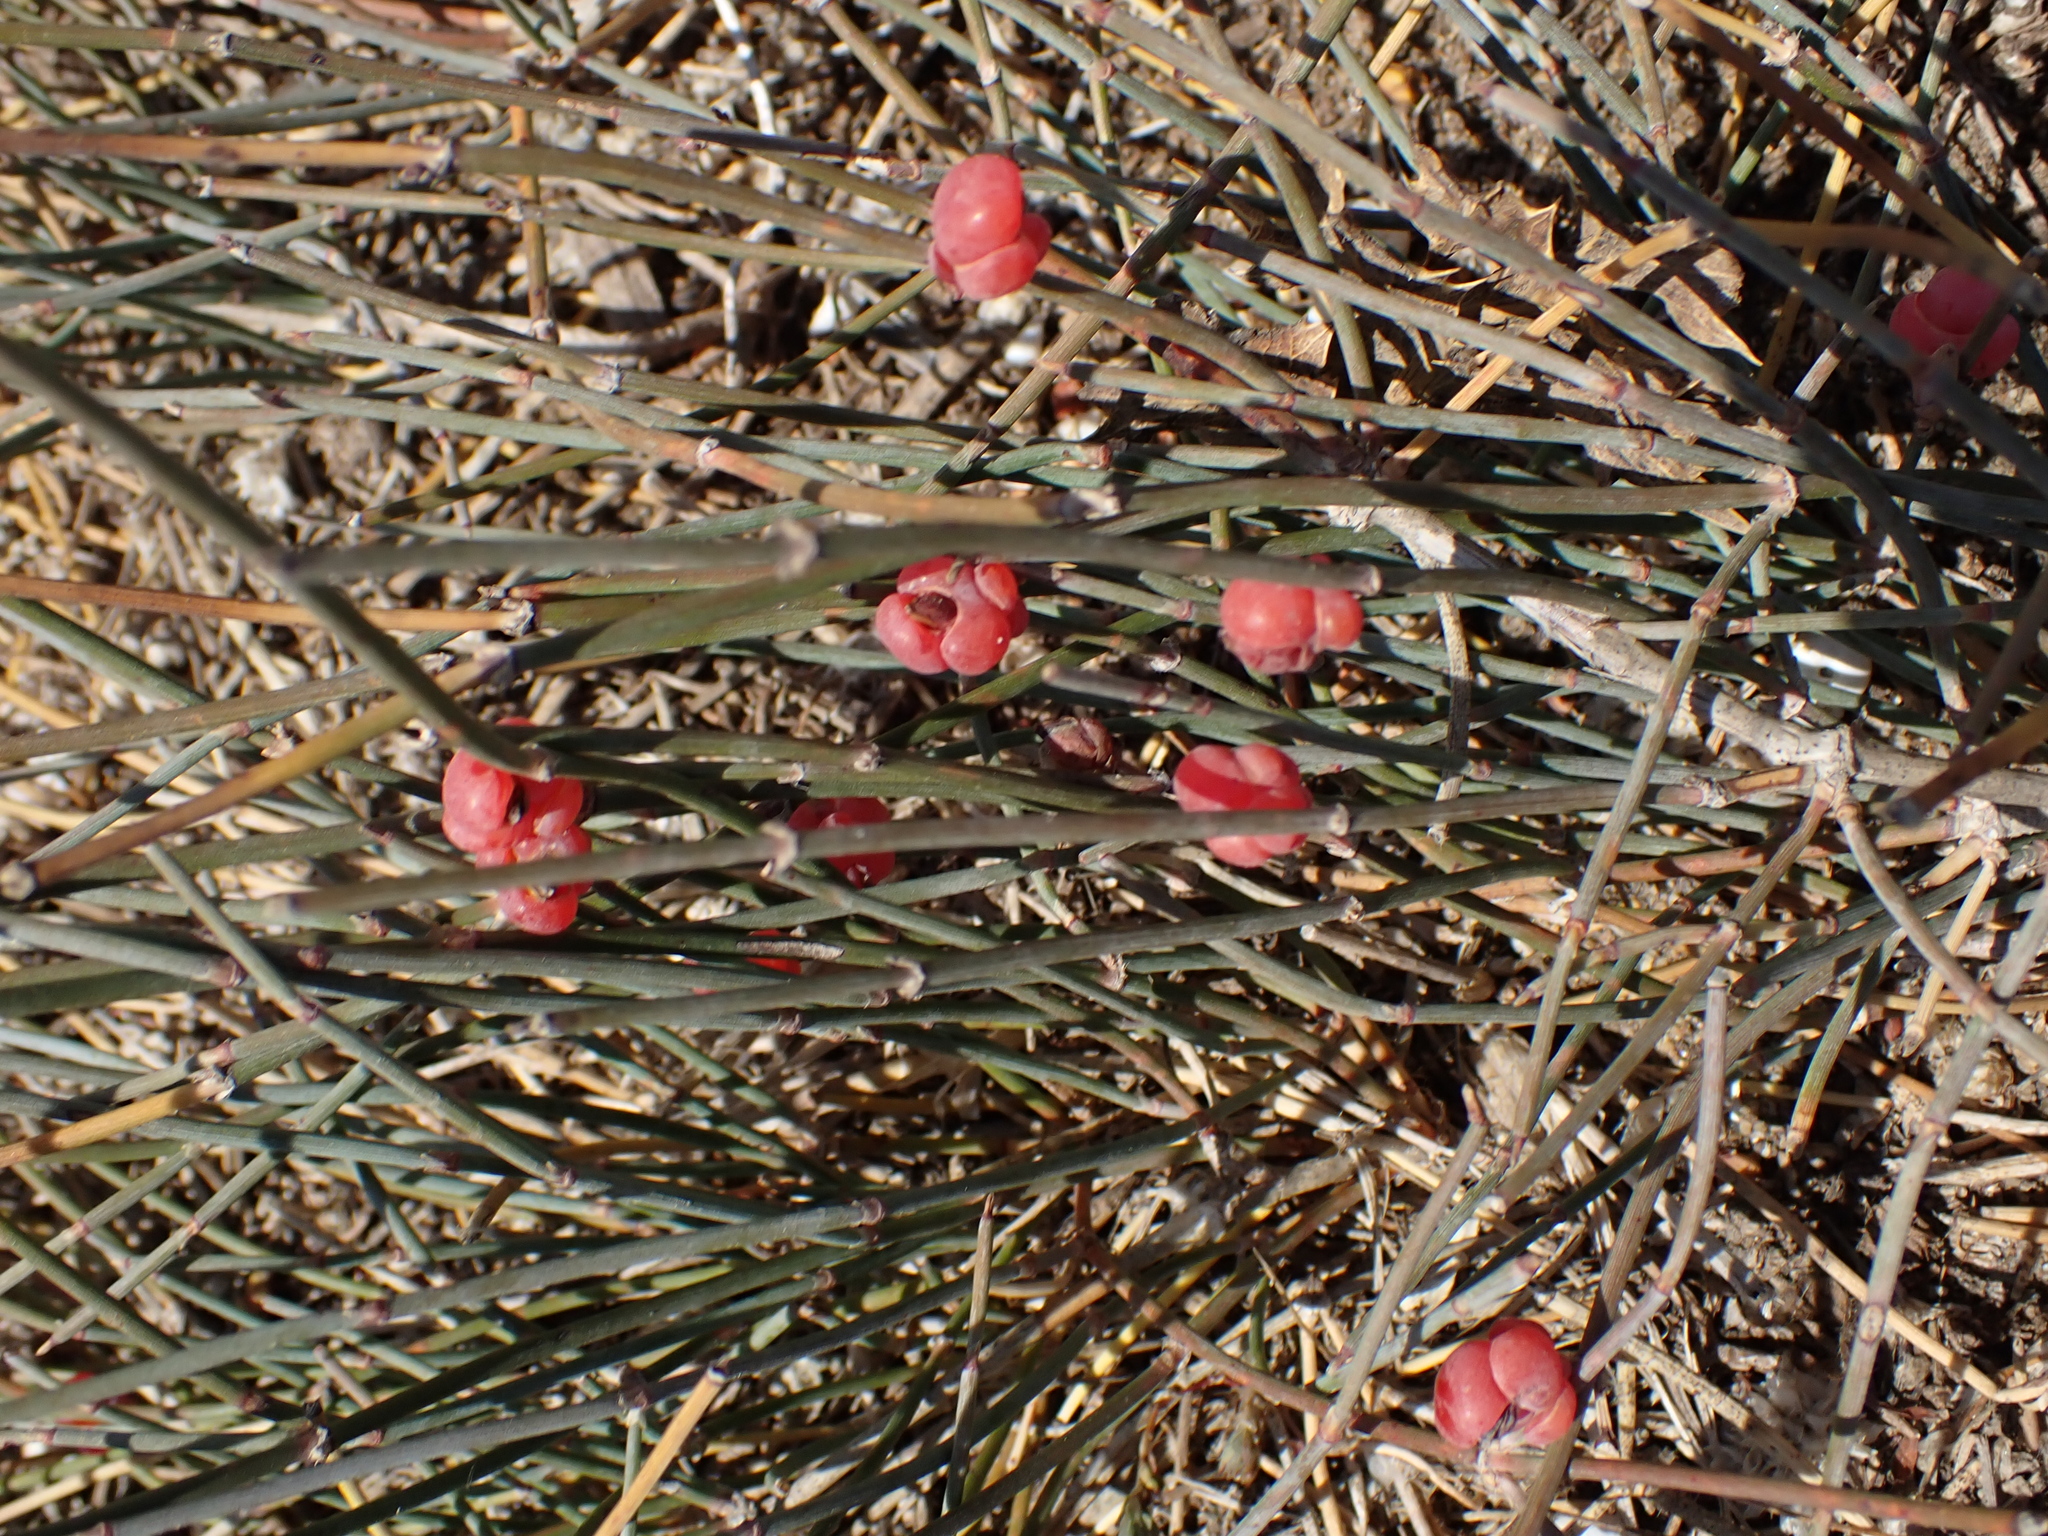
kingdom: Plantae
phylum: Tracheophyta
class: Gnetopsida
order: Ephedrales
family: Ephedraceae
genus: Ephedra
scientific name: Ephedra distachya
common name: Sea grape
